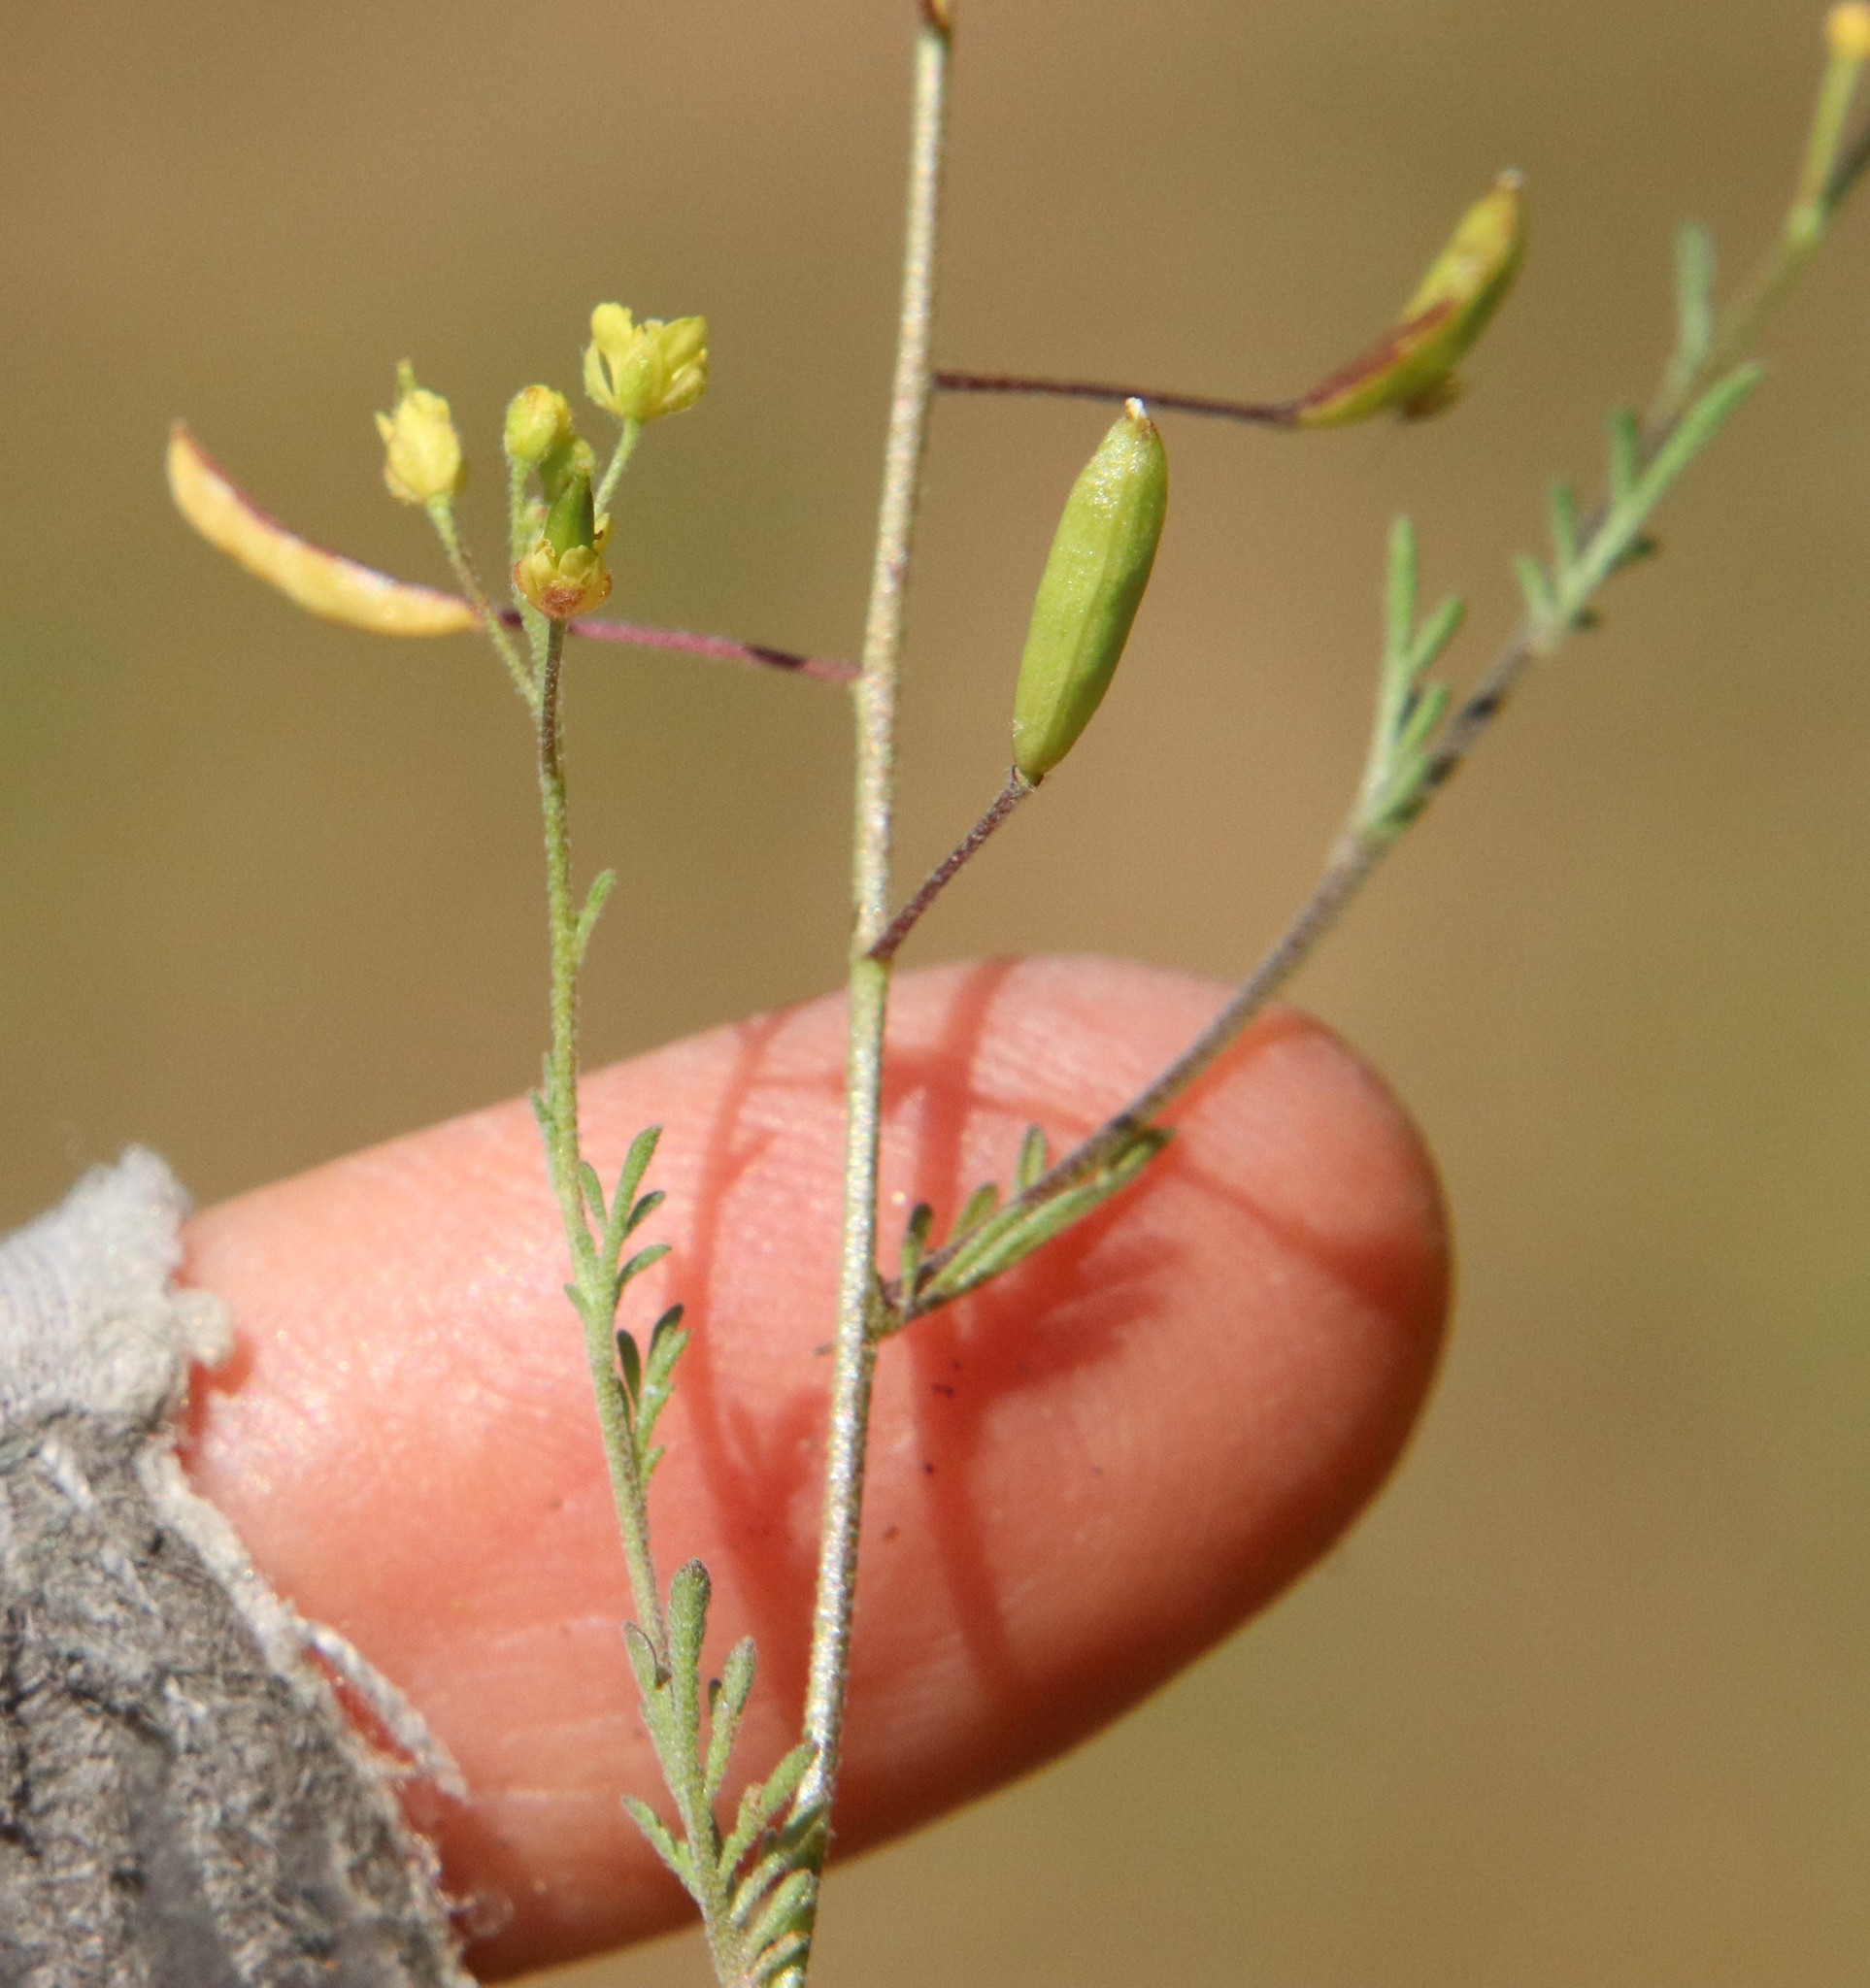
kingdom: Plantae
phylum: Tracheophyta
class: Magnoliopsida
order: Brassicales
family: Brassicaceae
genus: Descurainia
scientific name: Descurainia pinnata
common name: Western tansy mustard
